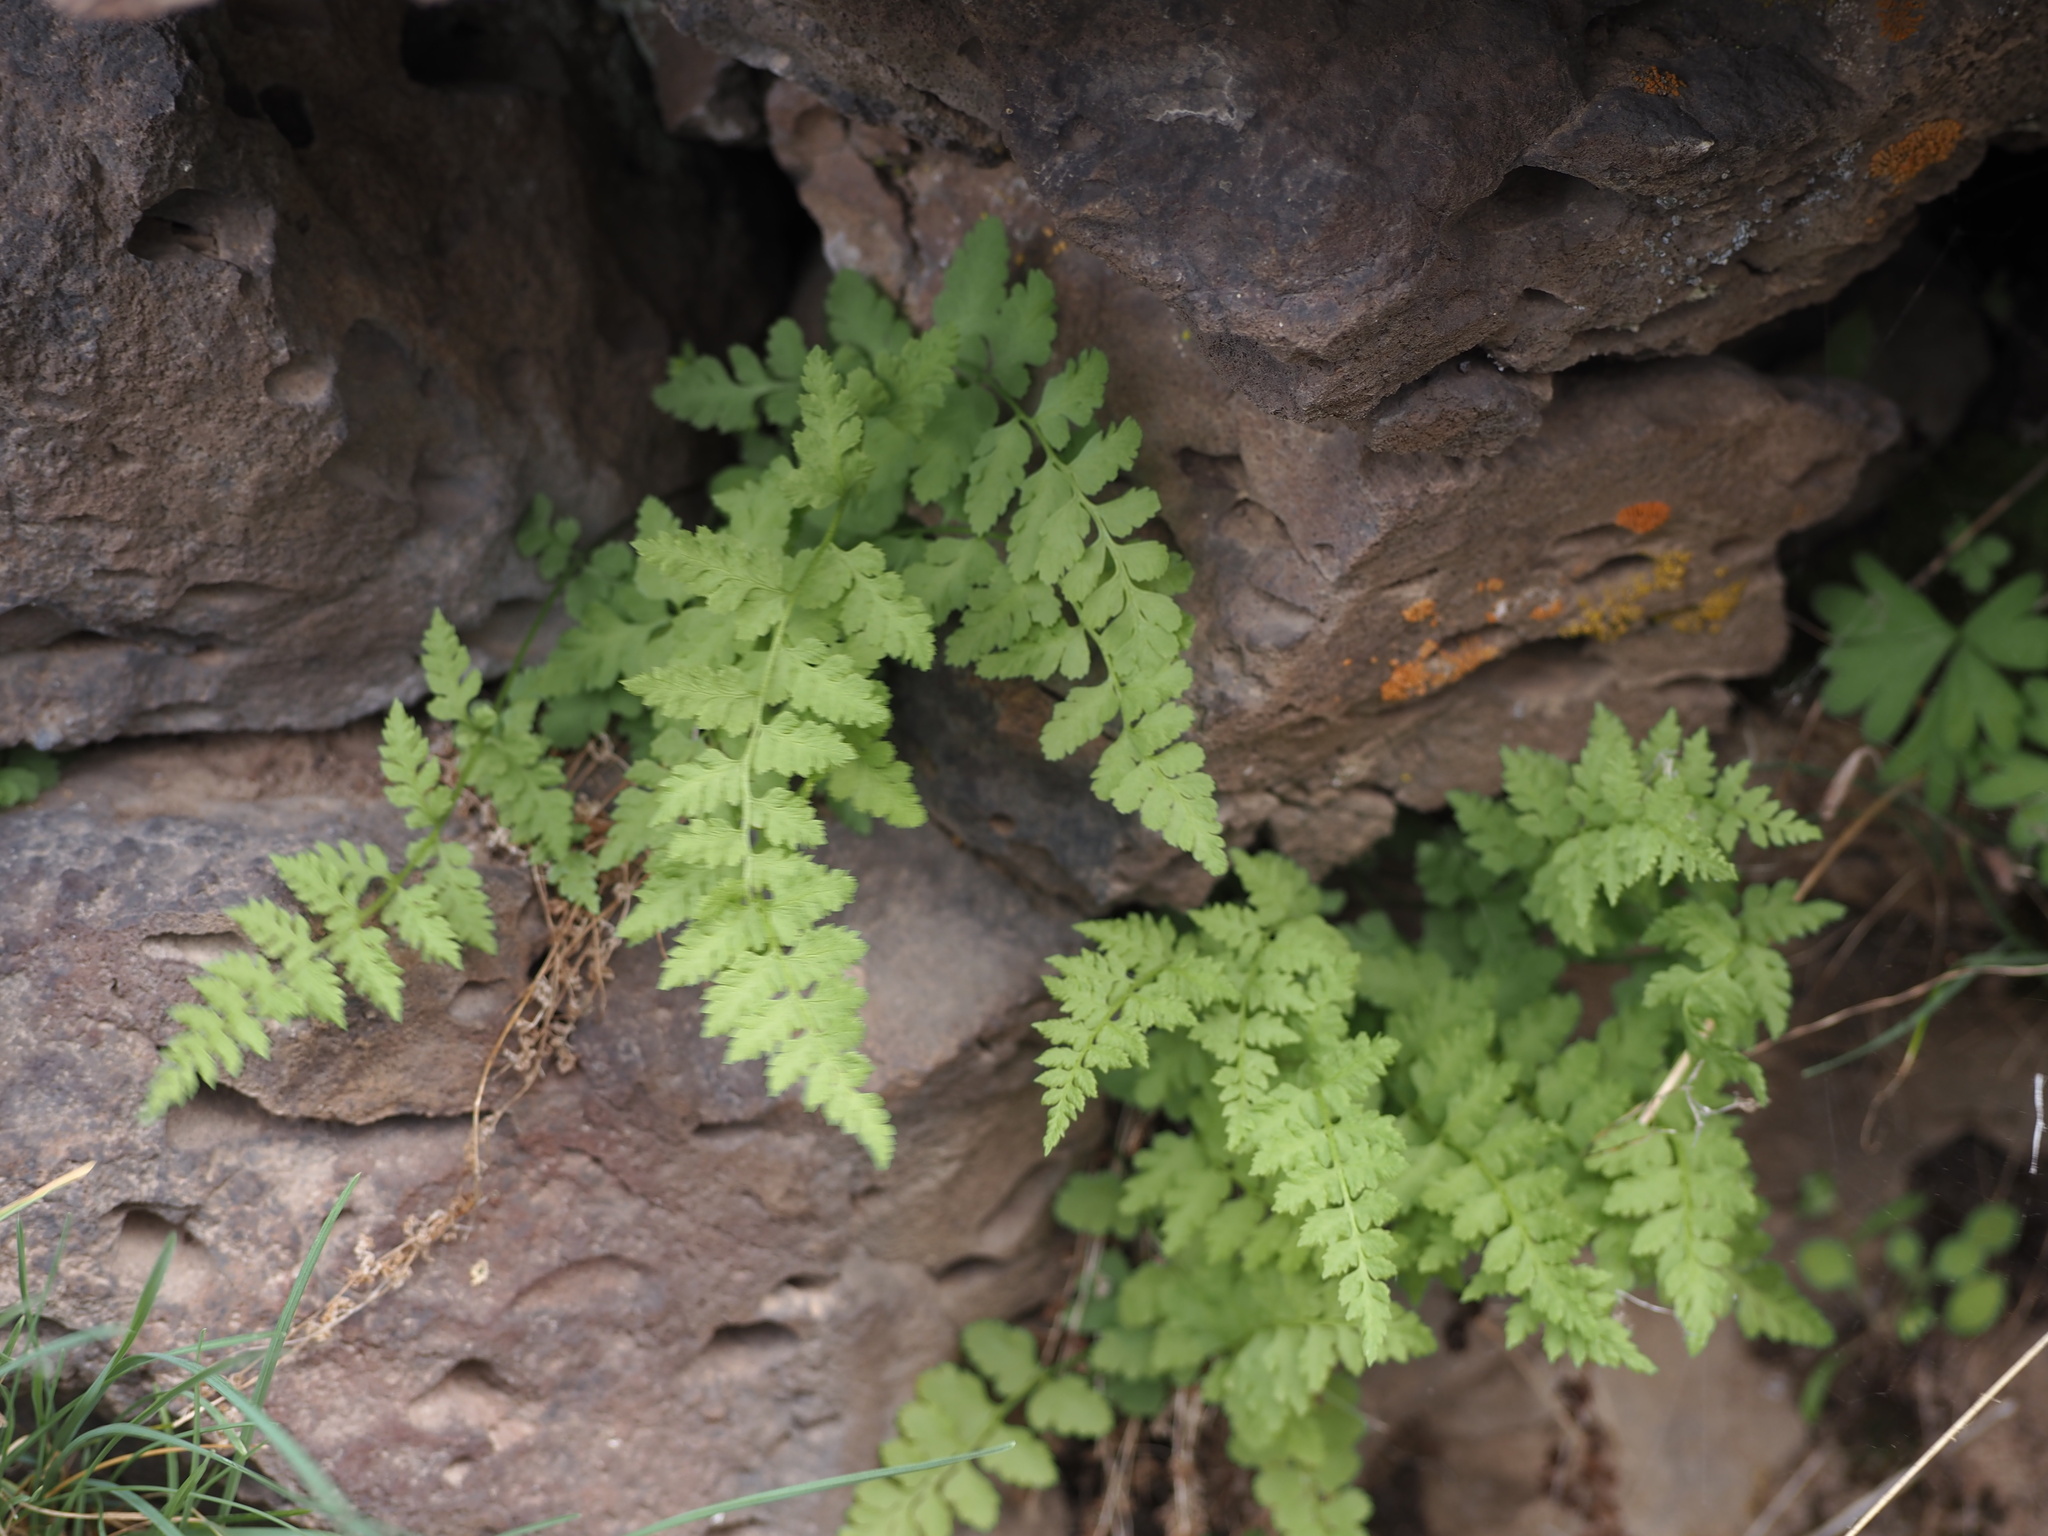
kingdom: Plantae
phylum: Tracheophyta
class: Polypodiopsida
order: Polypodiales
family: Cystopteridaceae
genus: Cystopteris
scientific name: Cystopteris fragilis
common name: Brittle bladder fern
